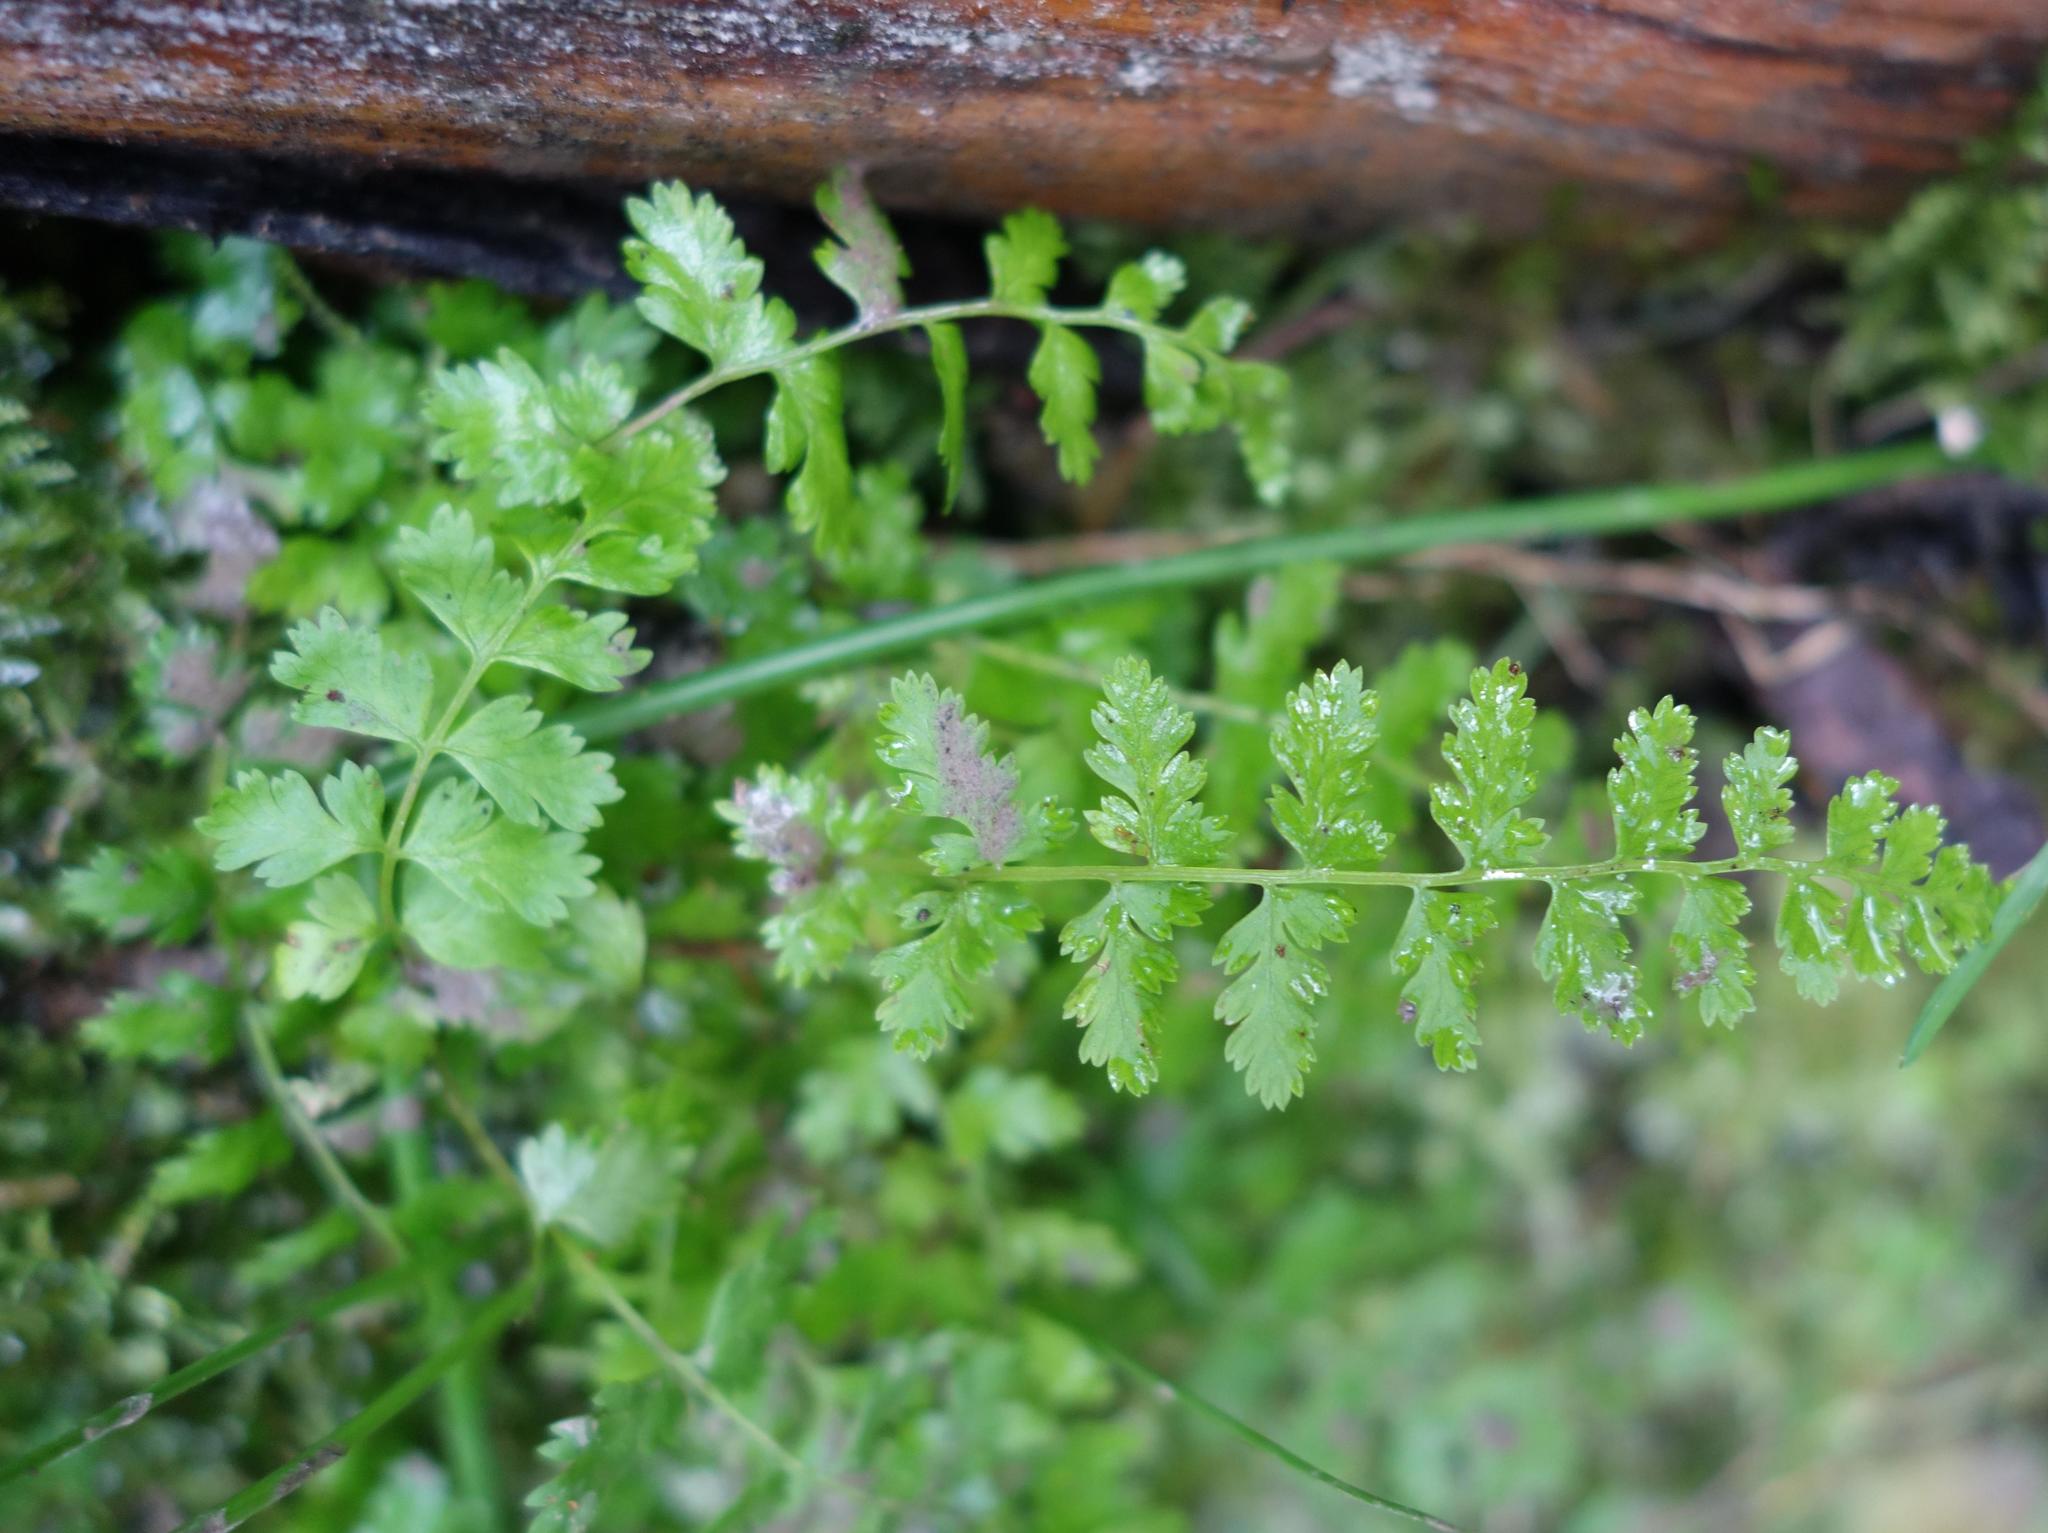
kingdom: Plantae
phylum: Tracheophyta
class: Polypodiopsida
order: Polypodiales
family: Cystopteridaceae
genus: Cystopteris
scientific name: Cystopteris fragilis
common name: Brittle bladder fern
